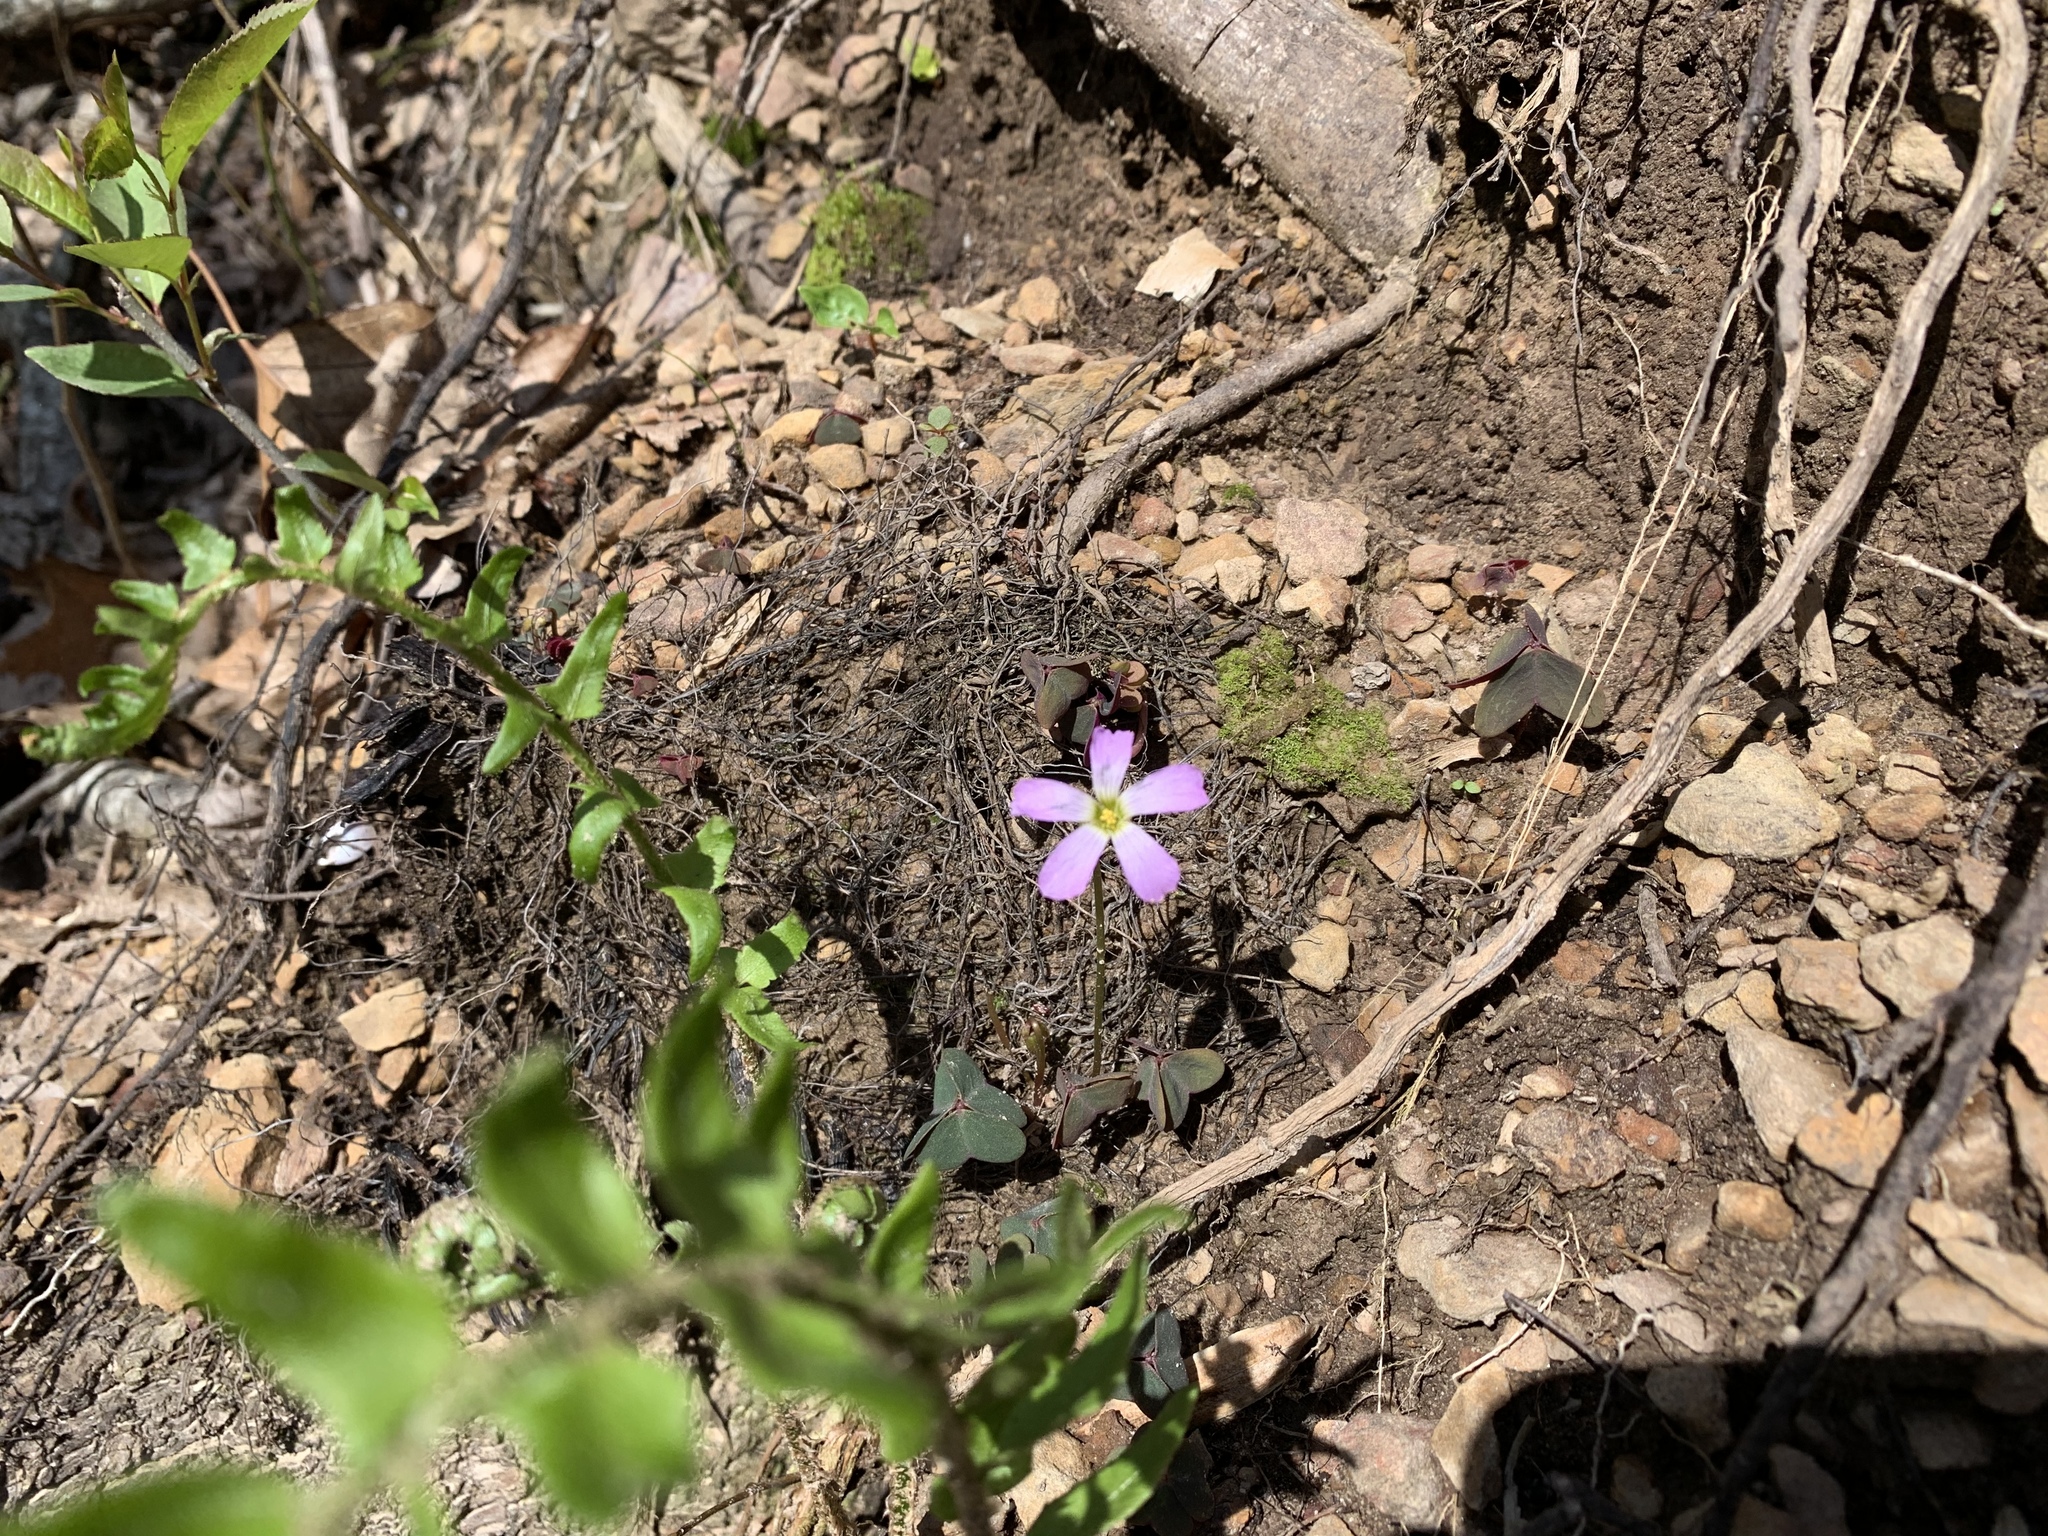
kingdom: Plantae
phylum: Tracheophyta
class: Magnoliopsida
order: Oxalidales
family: Oxalidaceae
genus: Oxalis
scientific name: Oxalis violacea
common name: Violet wood-sorrel
